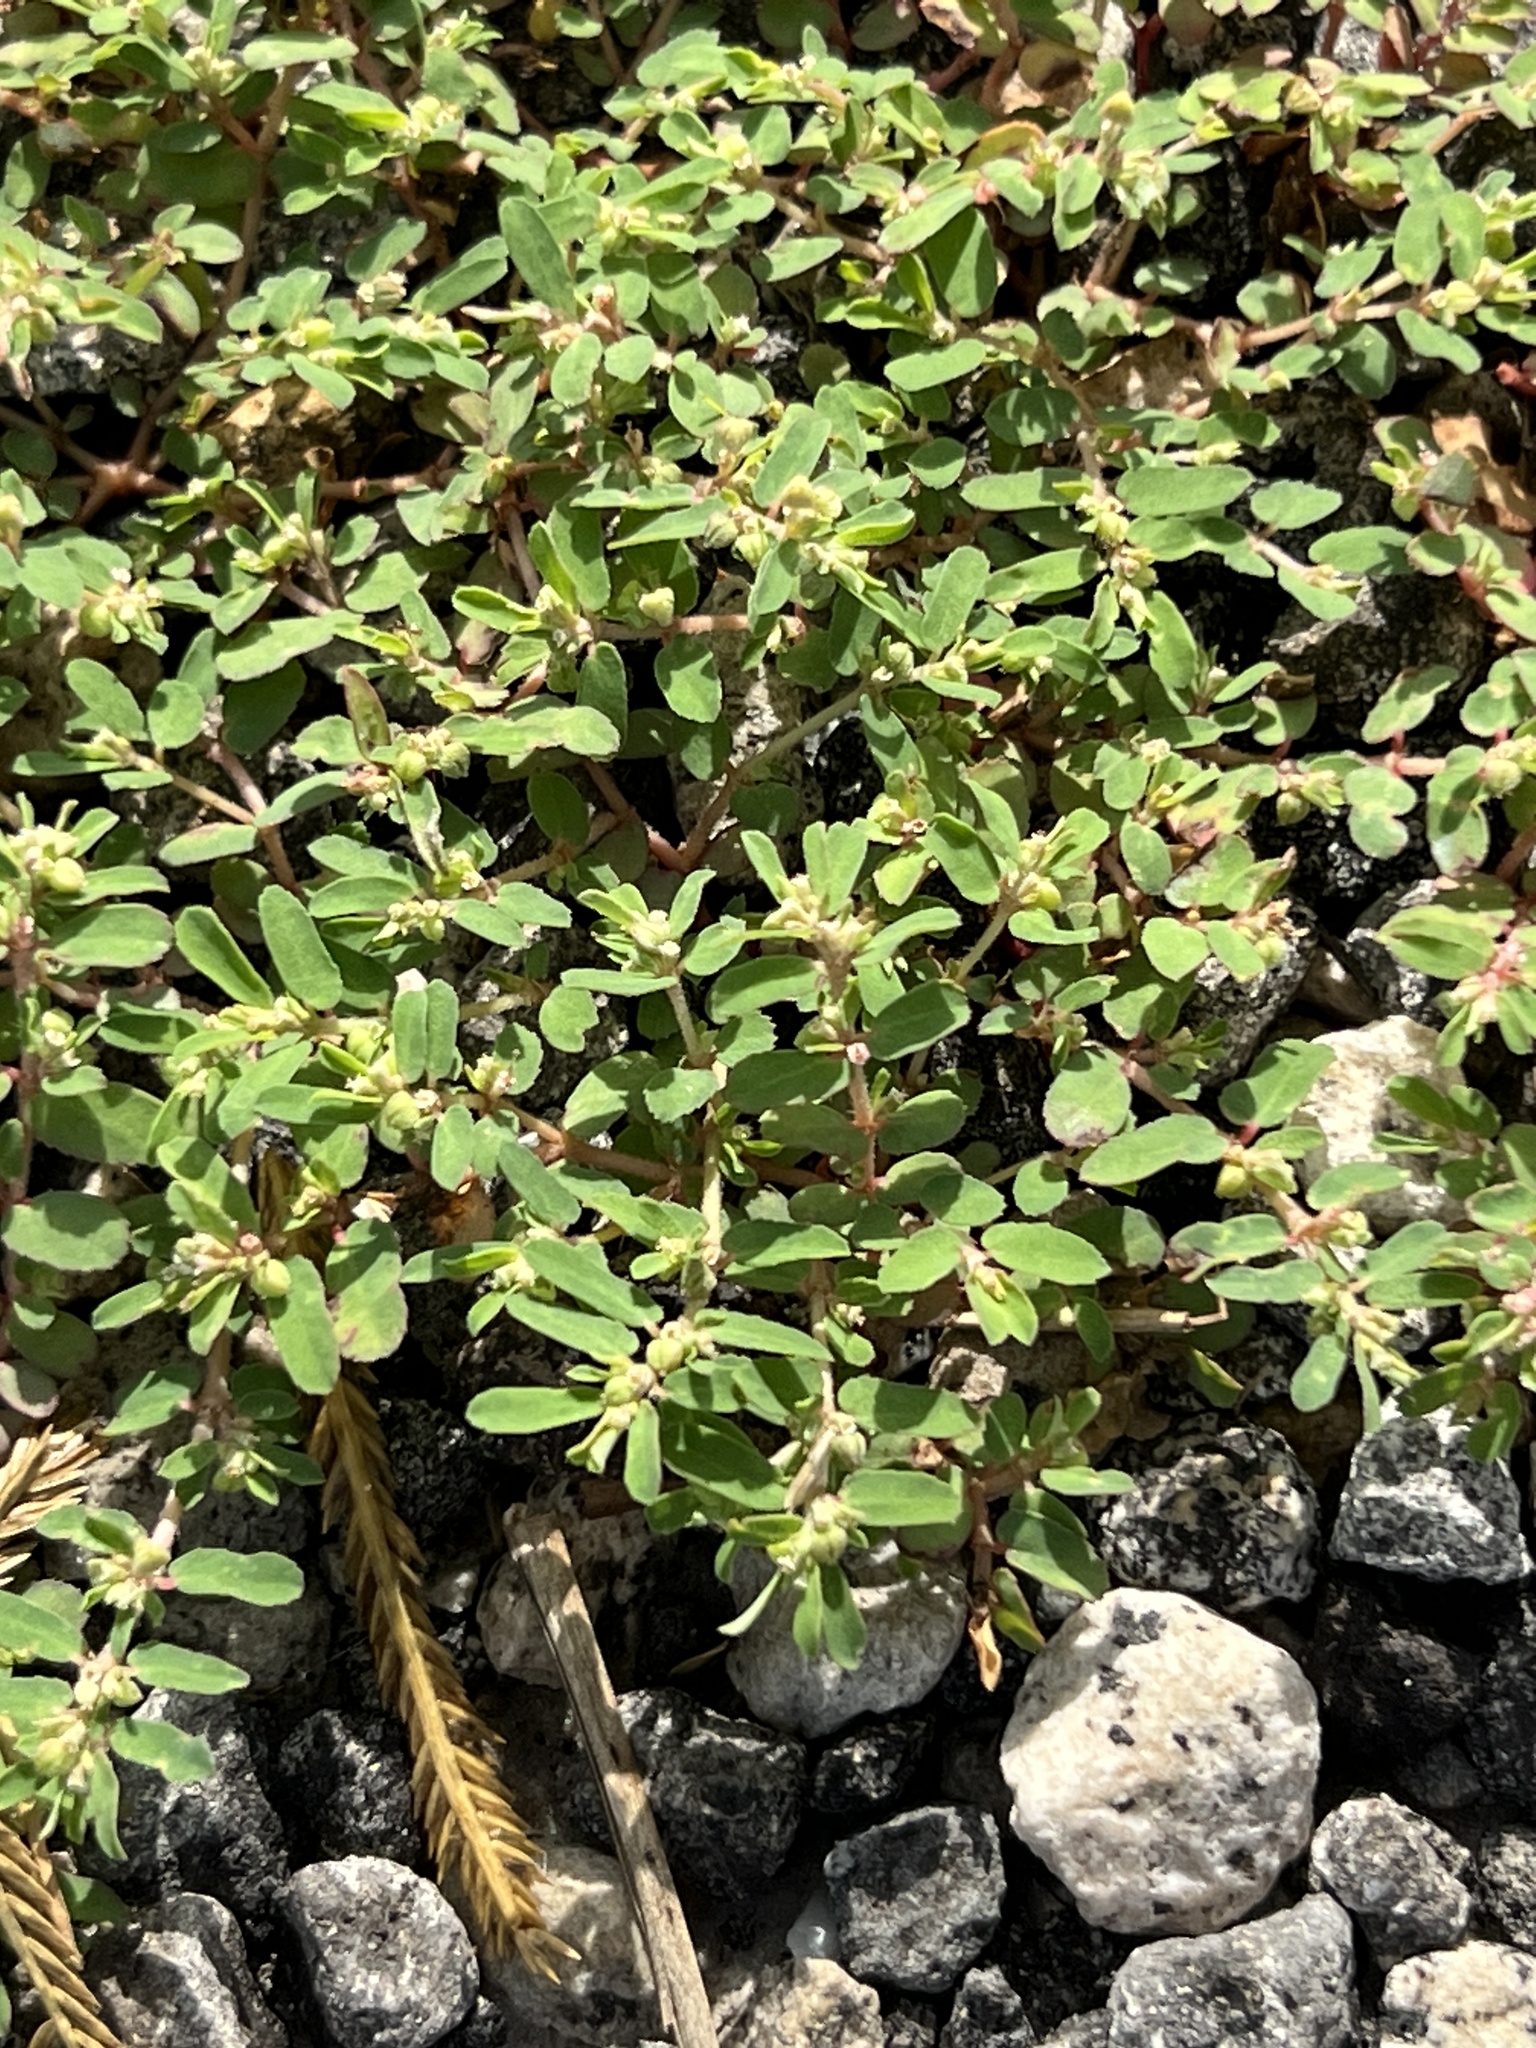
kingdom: Plantae
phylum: Tracheophyta
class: Magnoliopsida
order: Malpighiales
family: Euphorbiaceae
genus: Euphorbia
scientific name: Euphorbia maculata
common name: Spotted spurge
